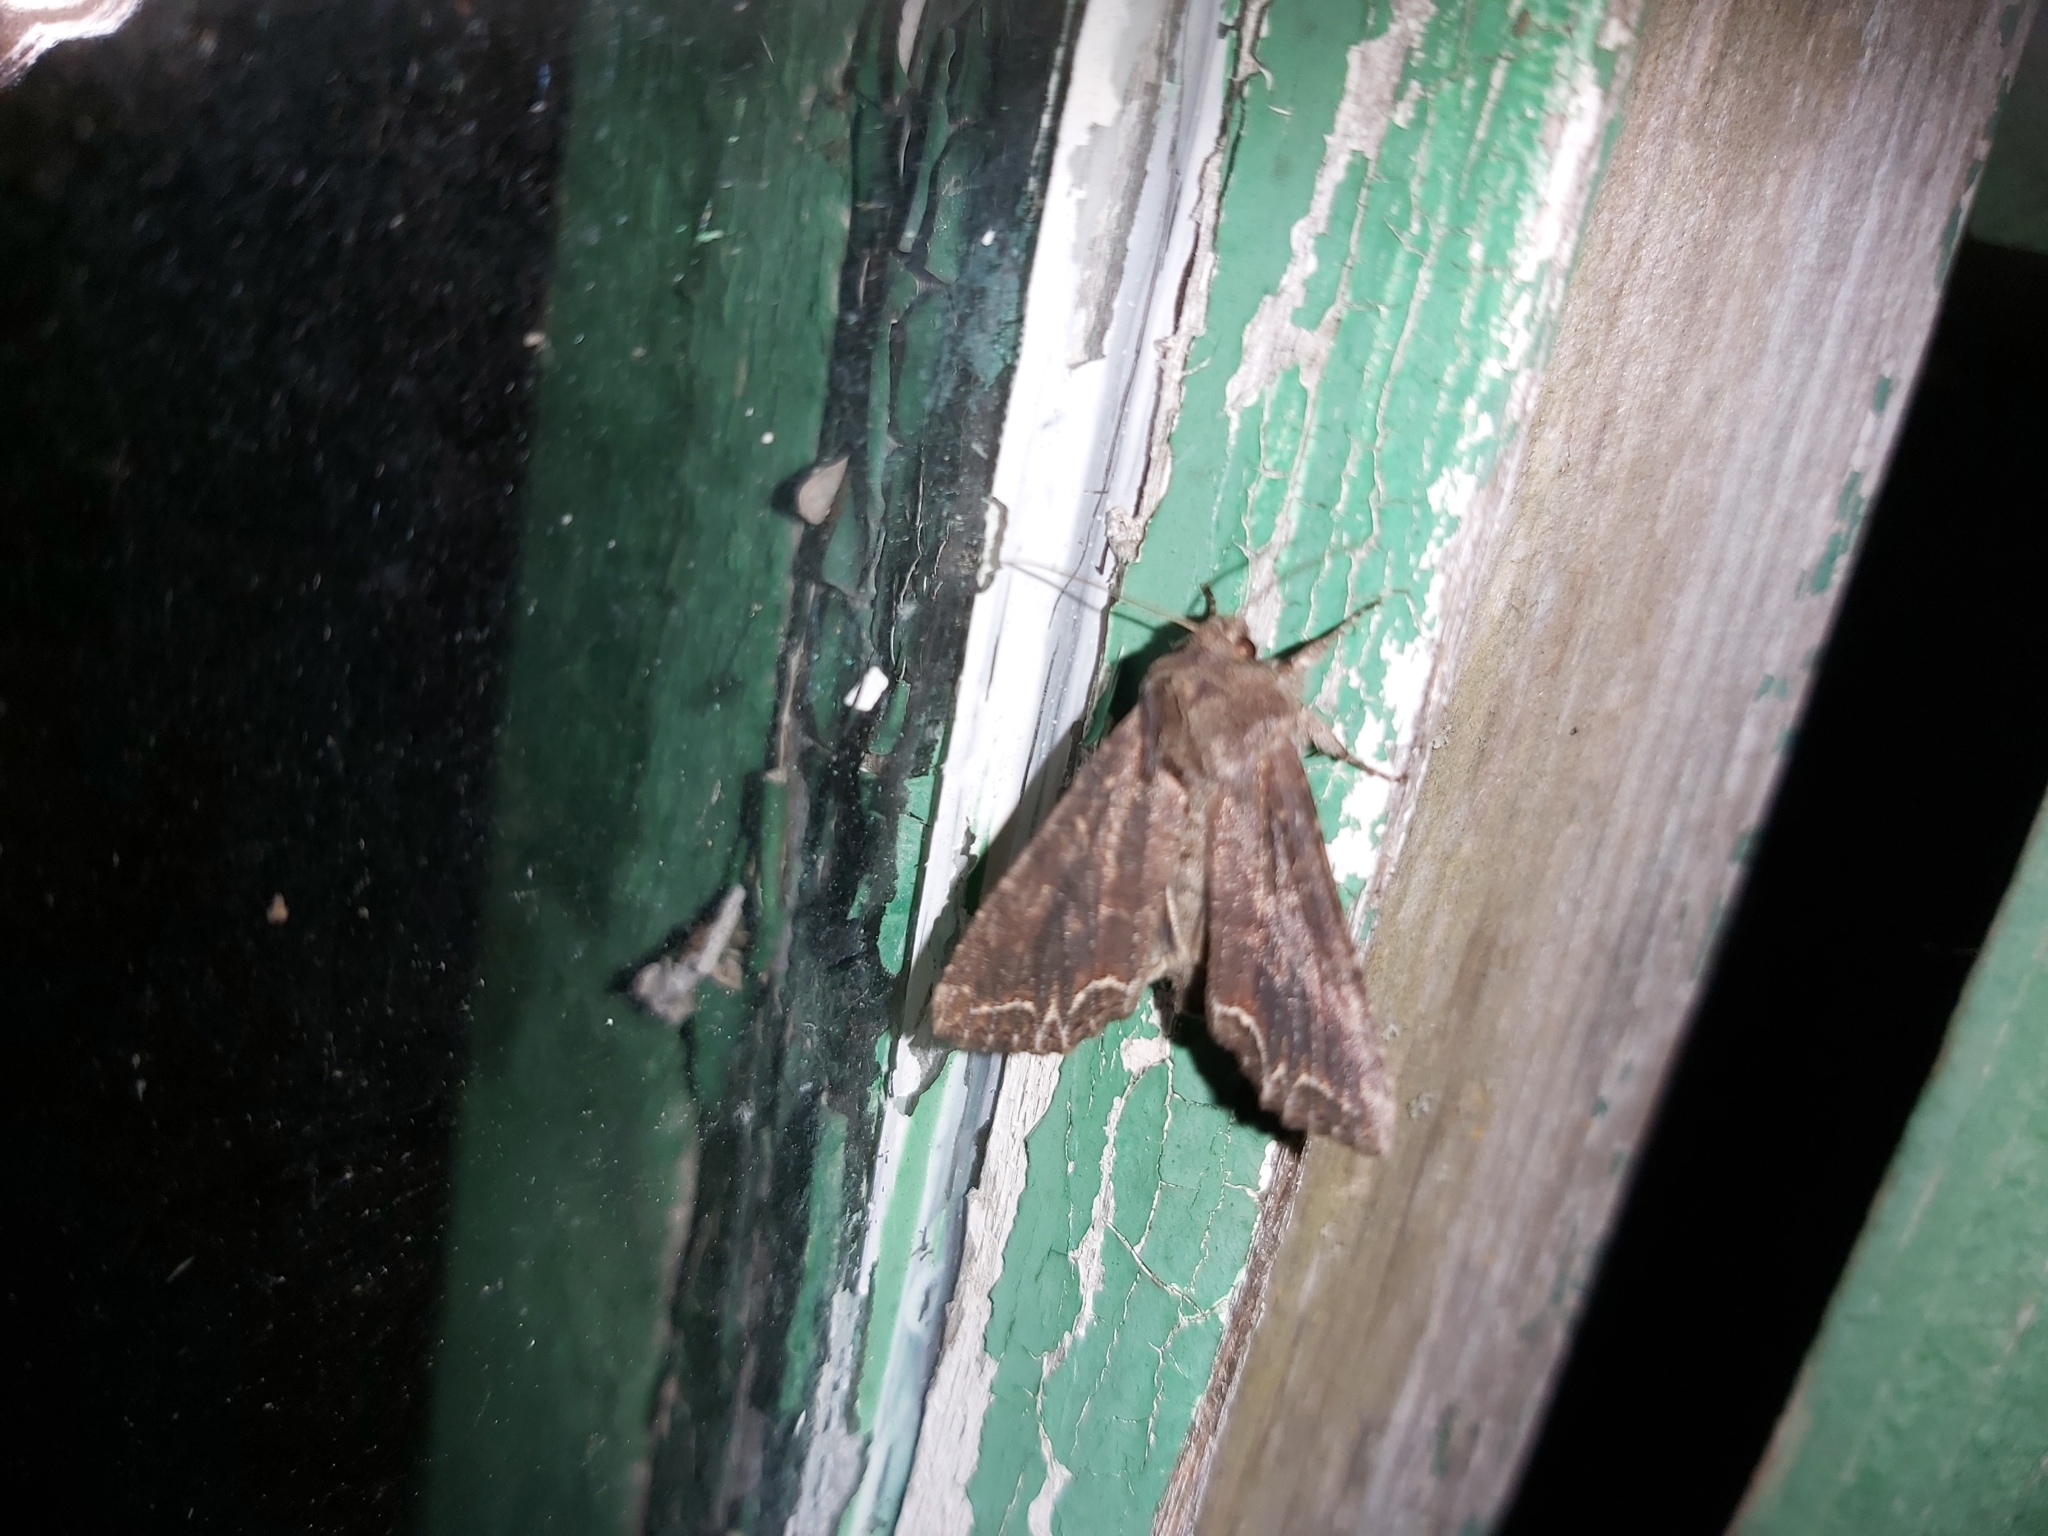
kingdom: Animalia
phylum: Arthropoda
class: Insecta
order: Lepidoptera
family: Noctuidae
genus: Lacanobia
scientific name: Lacanobia suasa
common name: Dog's tooth
